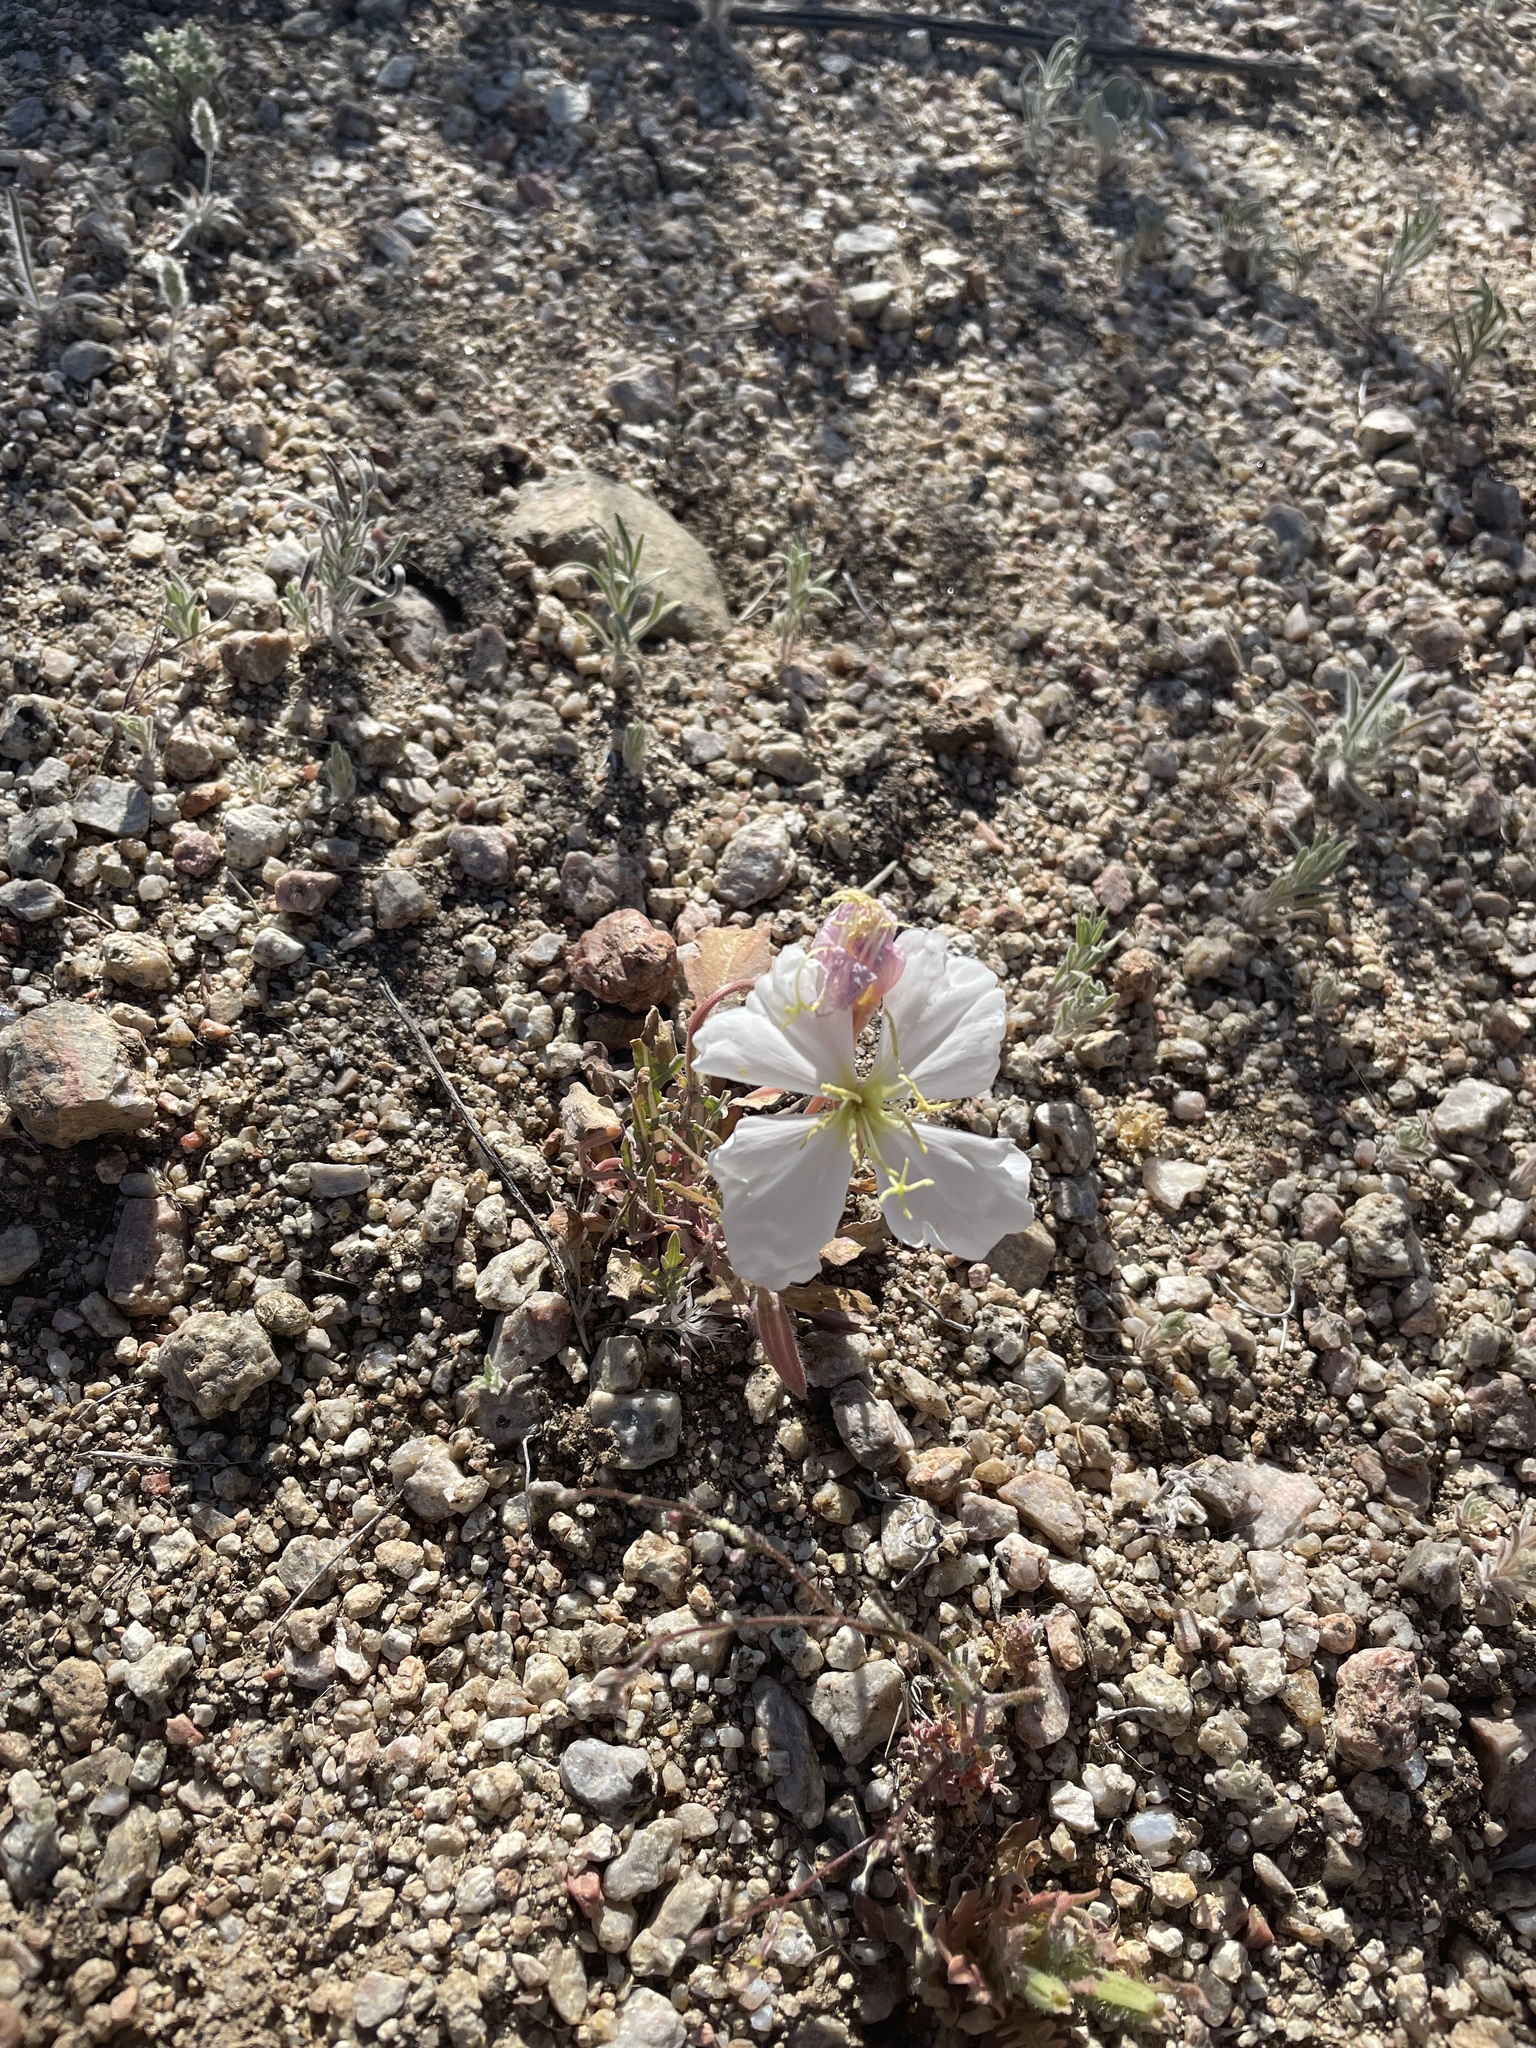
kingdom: Plantae
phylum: Tracheophyta
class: Magnoliopsida
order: Myrtales
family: Onagraceae
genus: Oenothera
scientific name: Oenothera albicaulis
